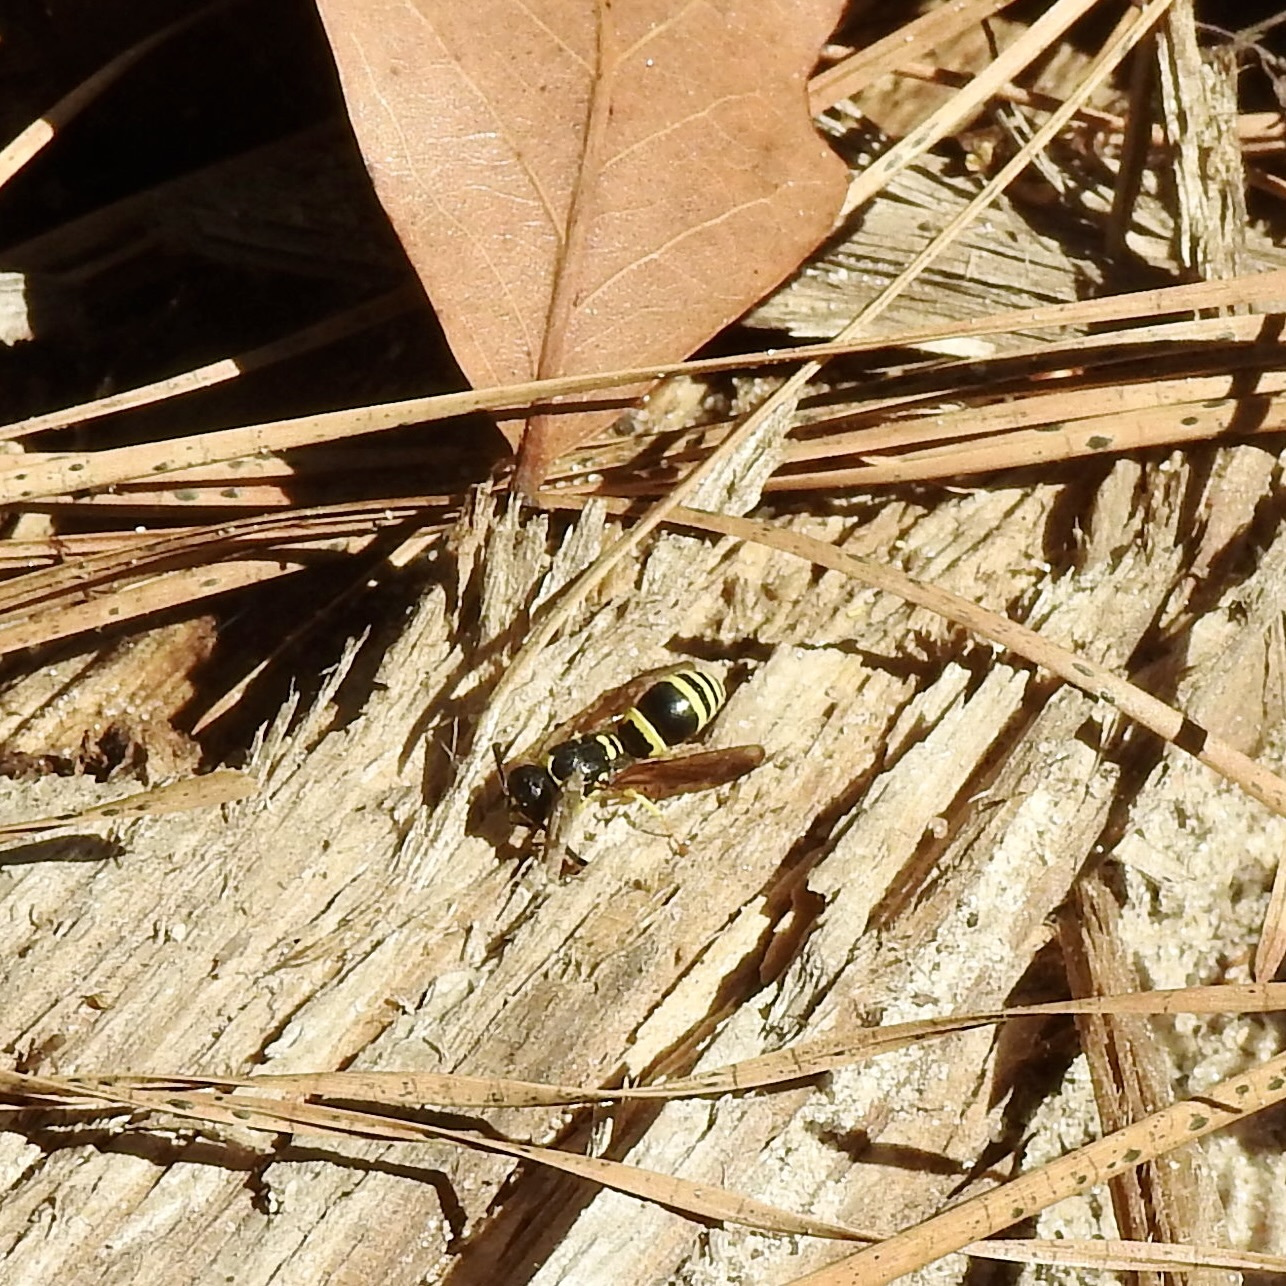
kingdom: Animalia
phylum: Arthropoda
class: Insecta
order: Hymenoptera
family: Vespidae
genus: Ancistrocerus
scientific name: Ancistrocerus adiabatus
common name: Bramble mason wasp
